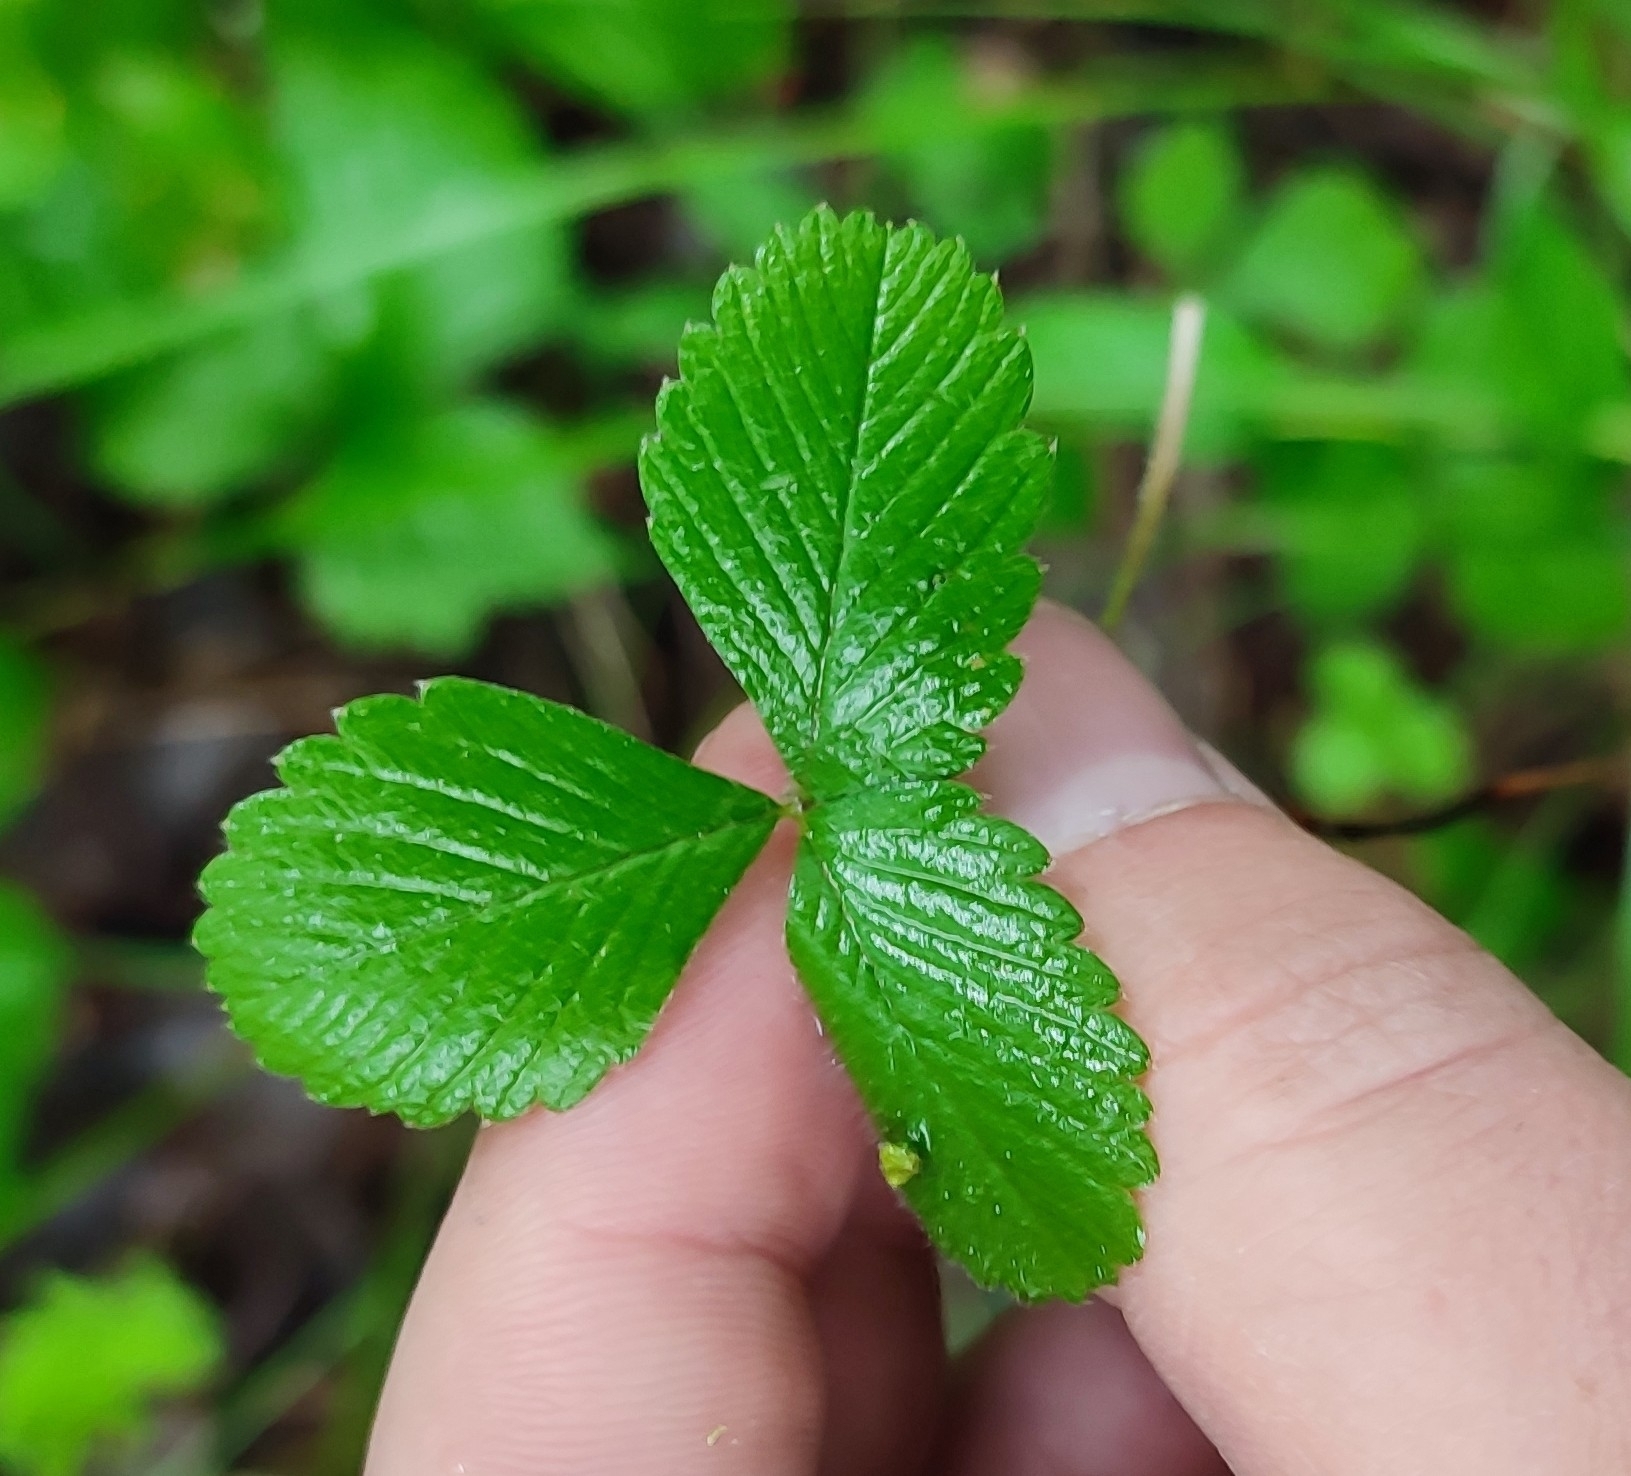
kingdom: Plantae
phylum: Tracheophyta
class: Magnoliopsida
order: Rosales
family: Rosaceae
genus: Fragaria
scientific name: Fragaria viridis
